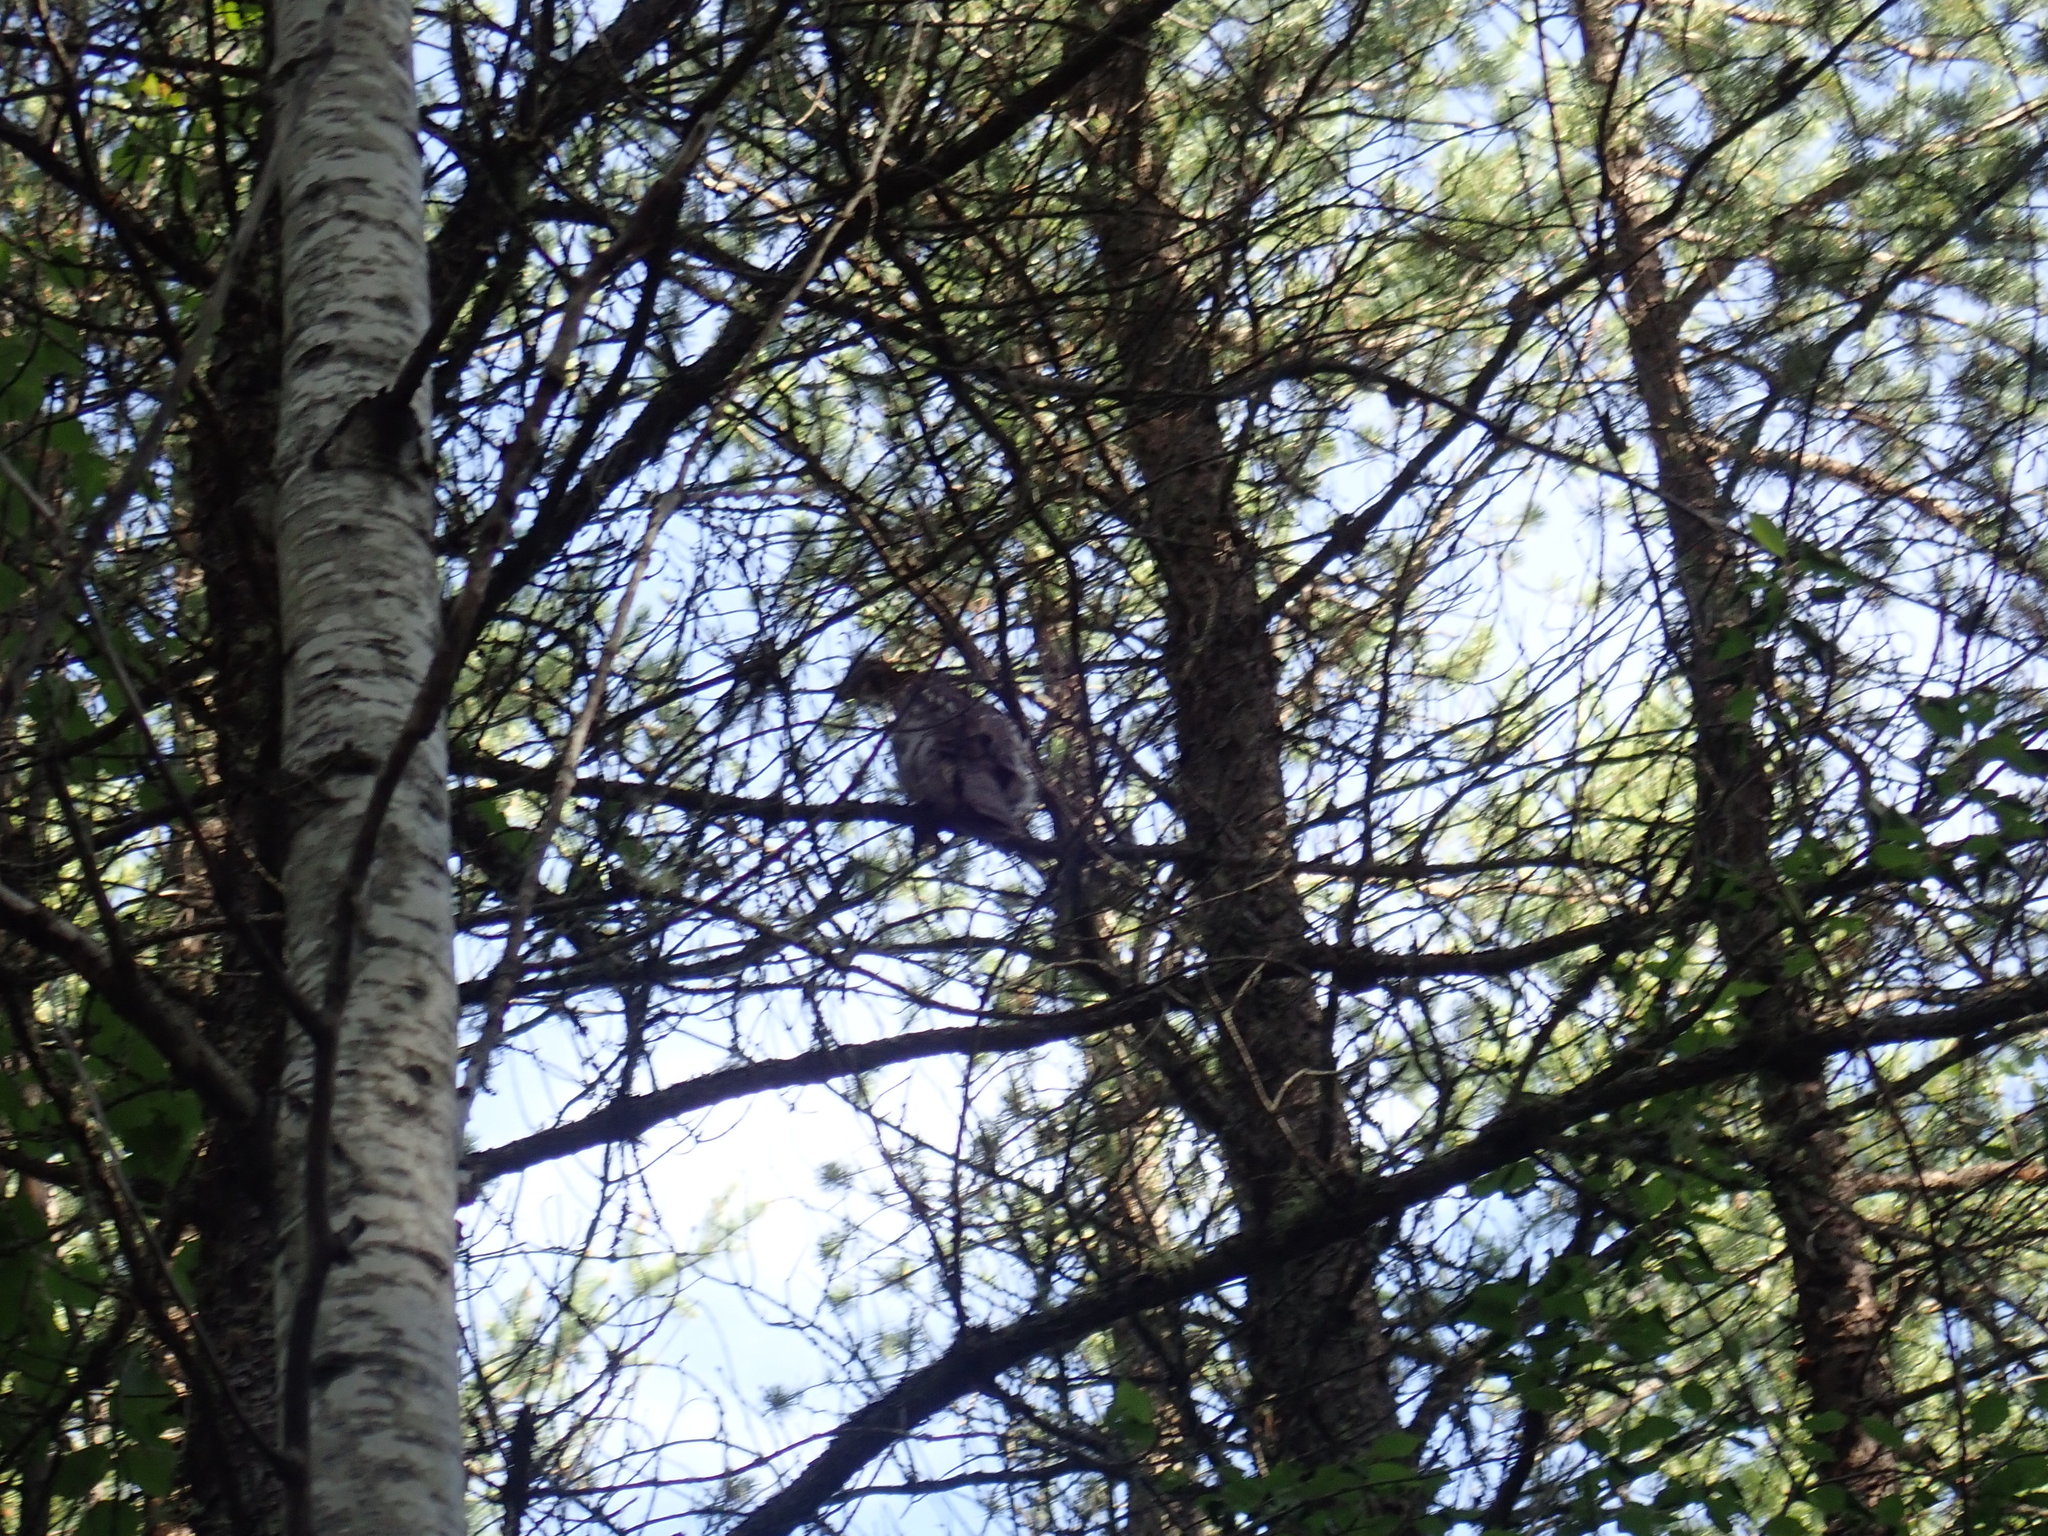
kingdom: Animalia
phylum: Chordata
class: Aves
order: Galliformes
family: Phasianidae
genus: Bonasa
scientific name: Bonasa umbellus
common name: Ruffed grouse
